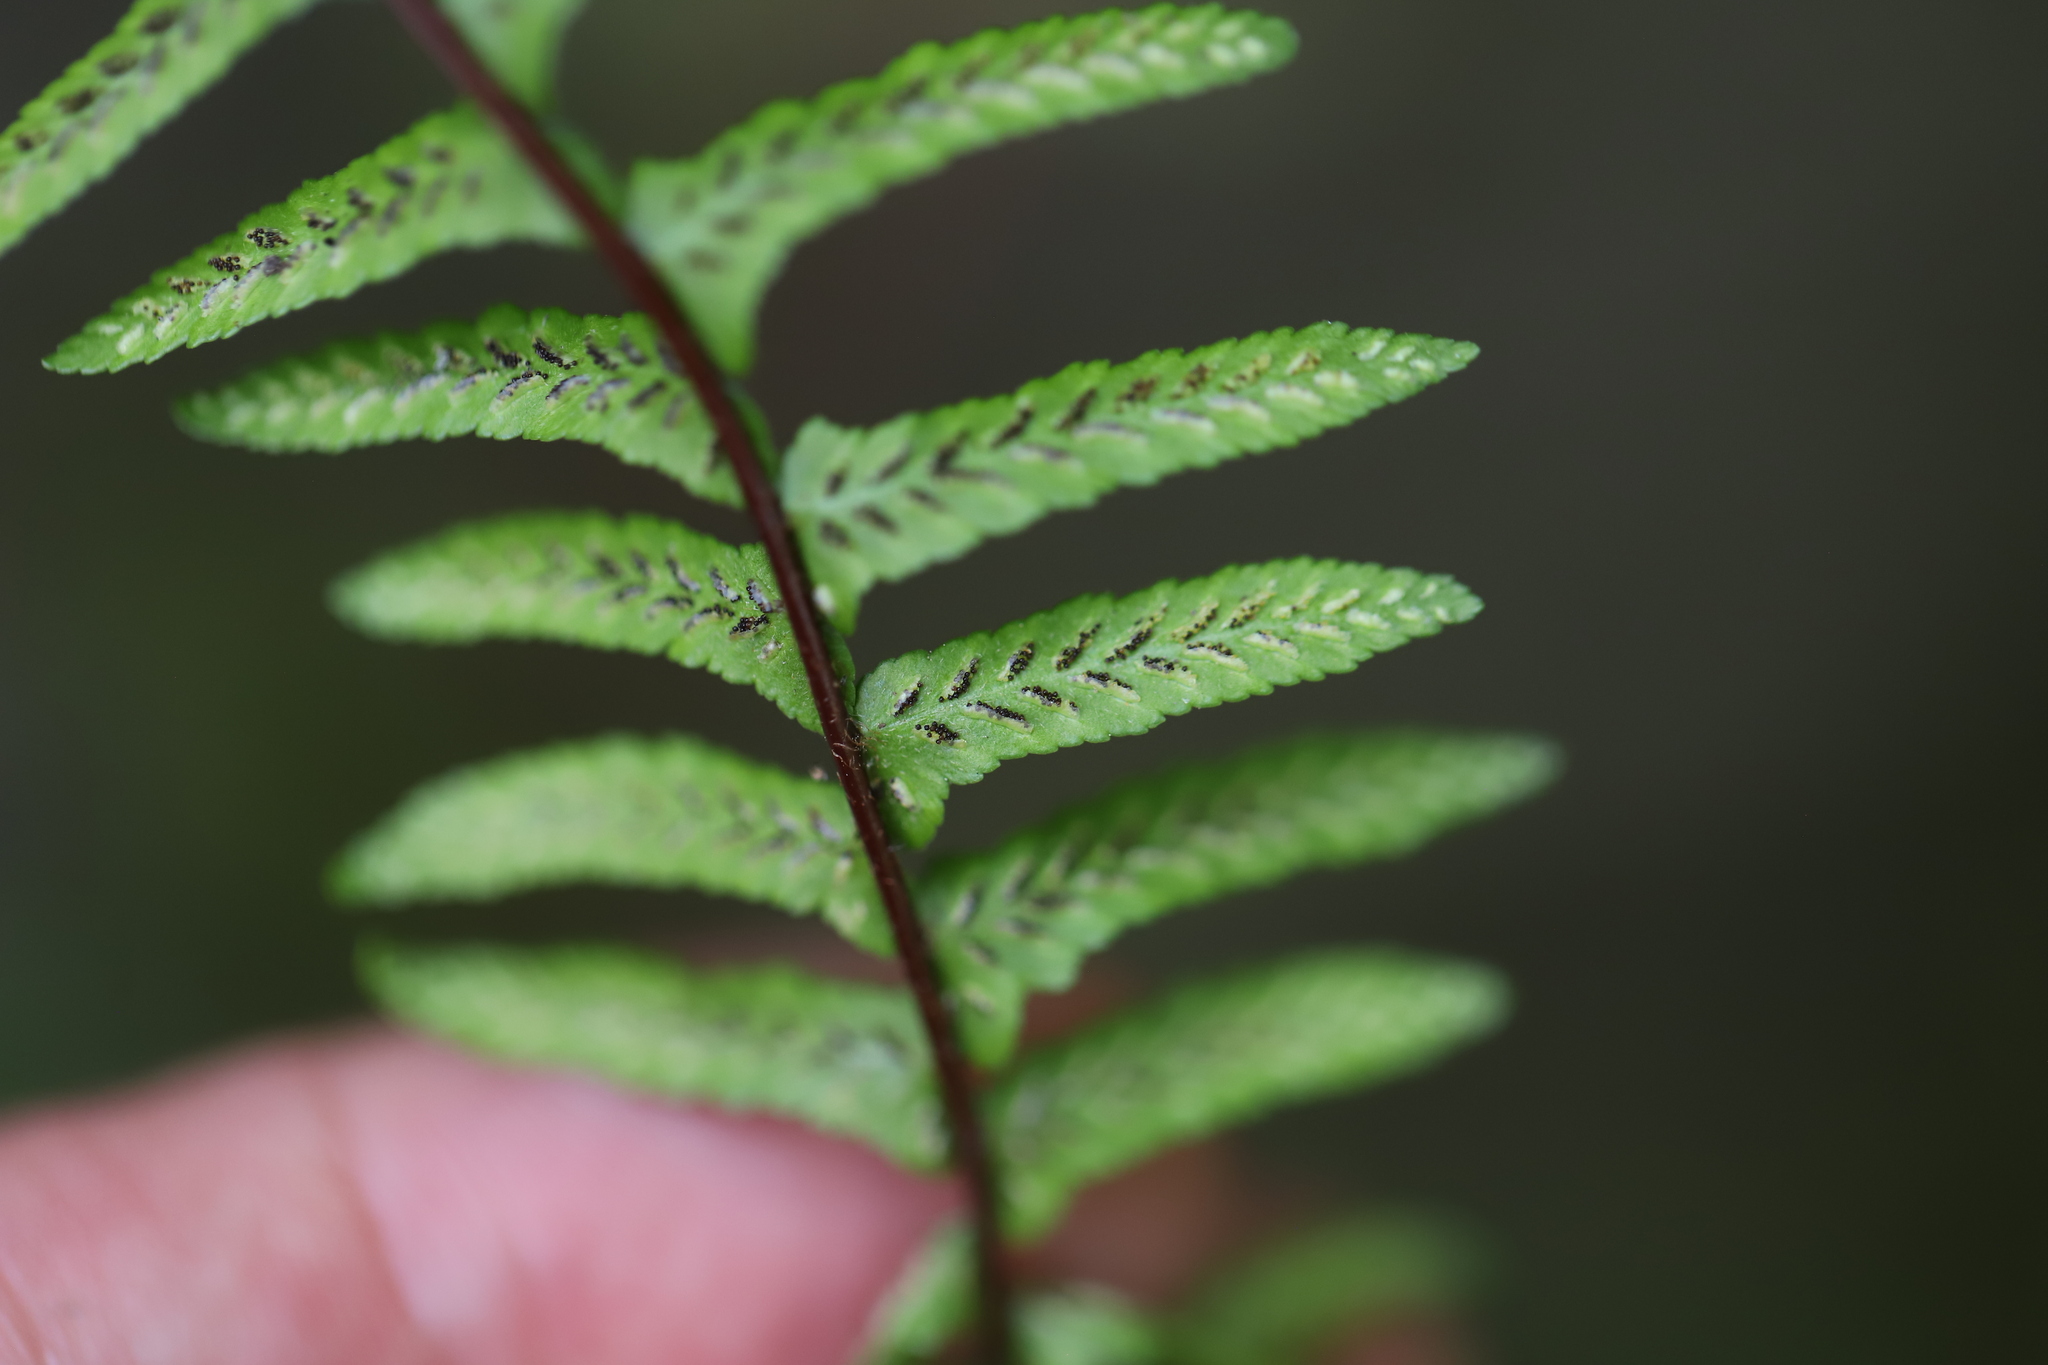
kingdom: Plantae
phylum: Tracheophyta
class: Polypodiopsida
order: Polypodiales
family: Aspleniaceae
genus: Asplenium
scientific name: Asplenium platyneuron
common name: Ebony spleenwort
